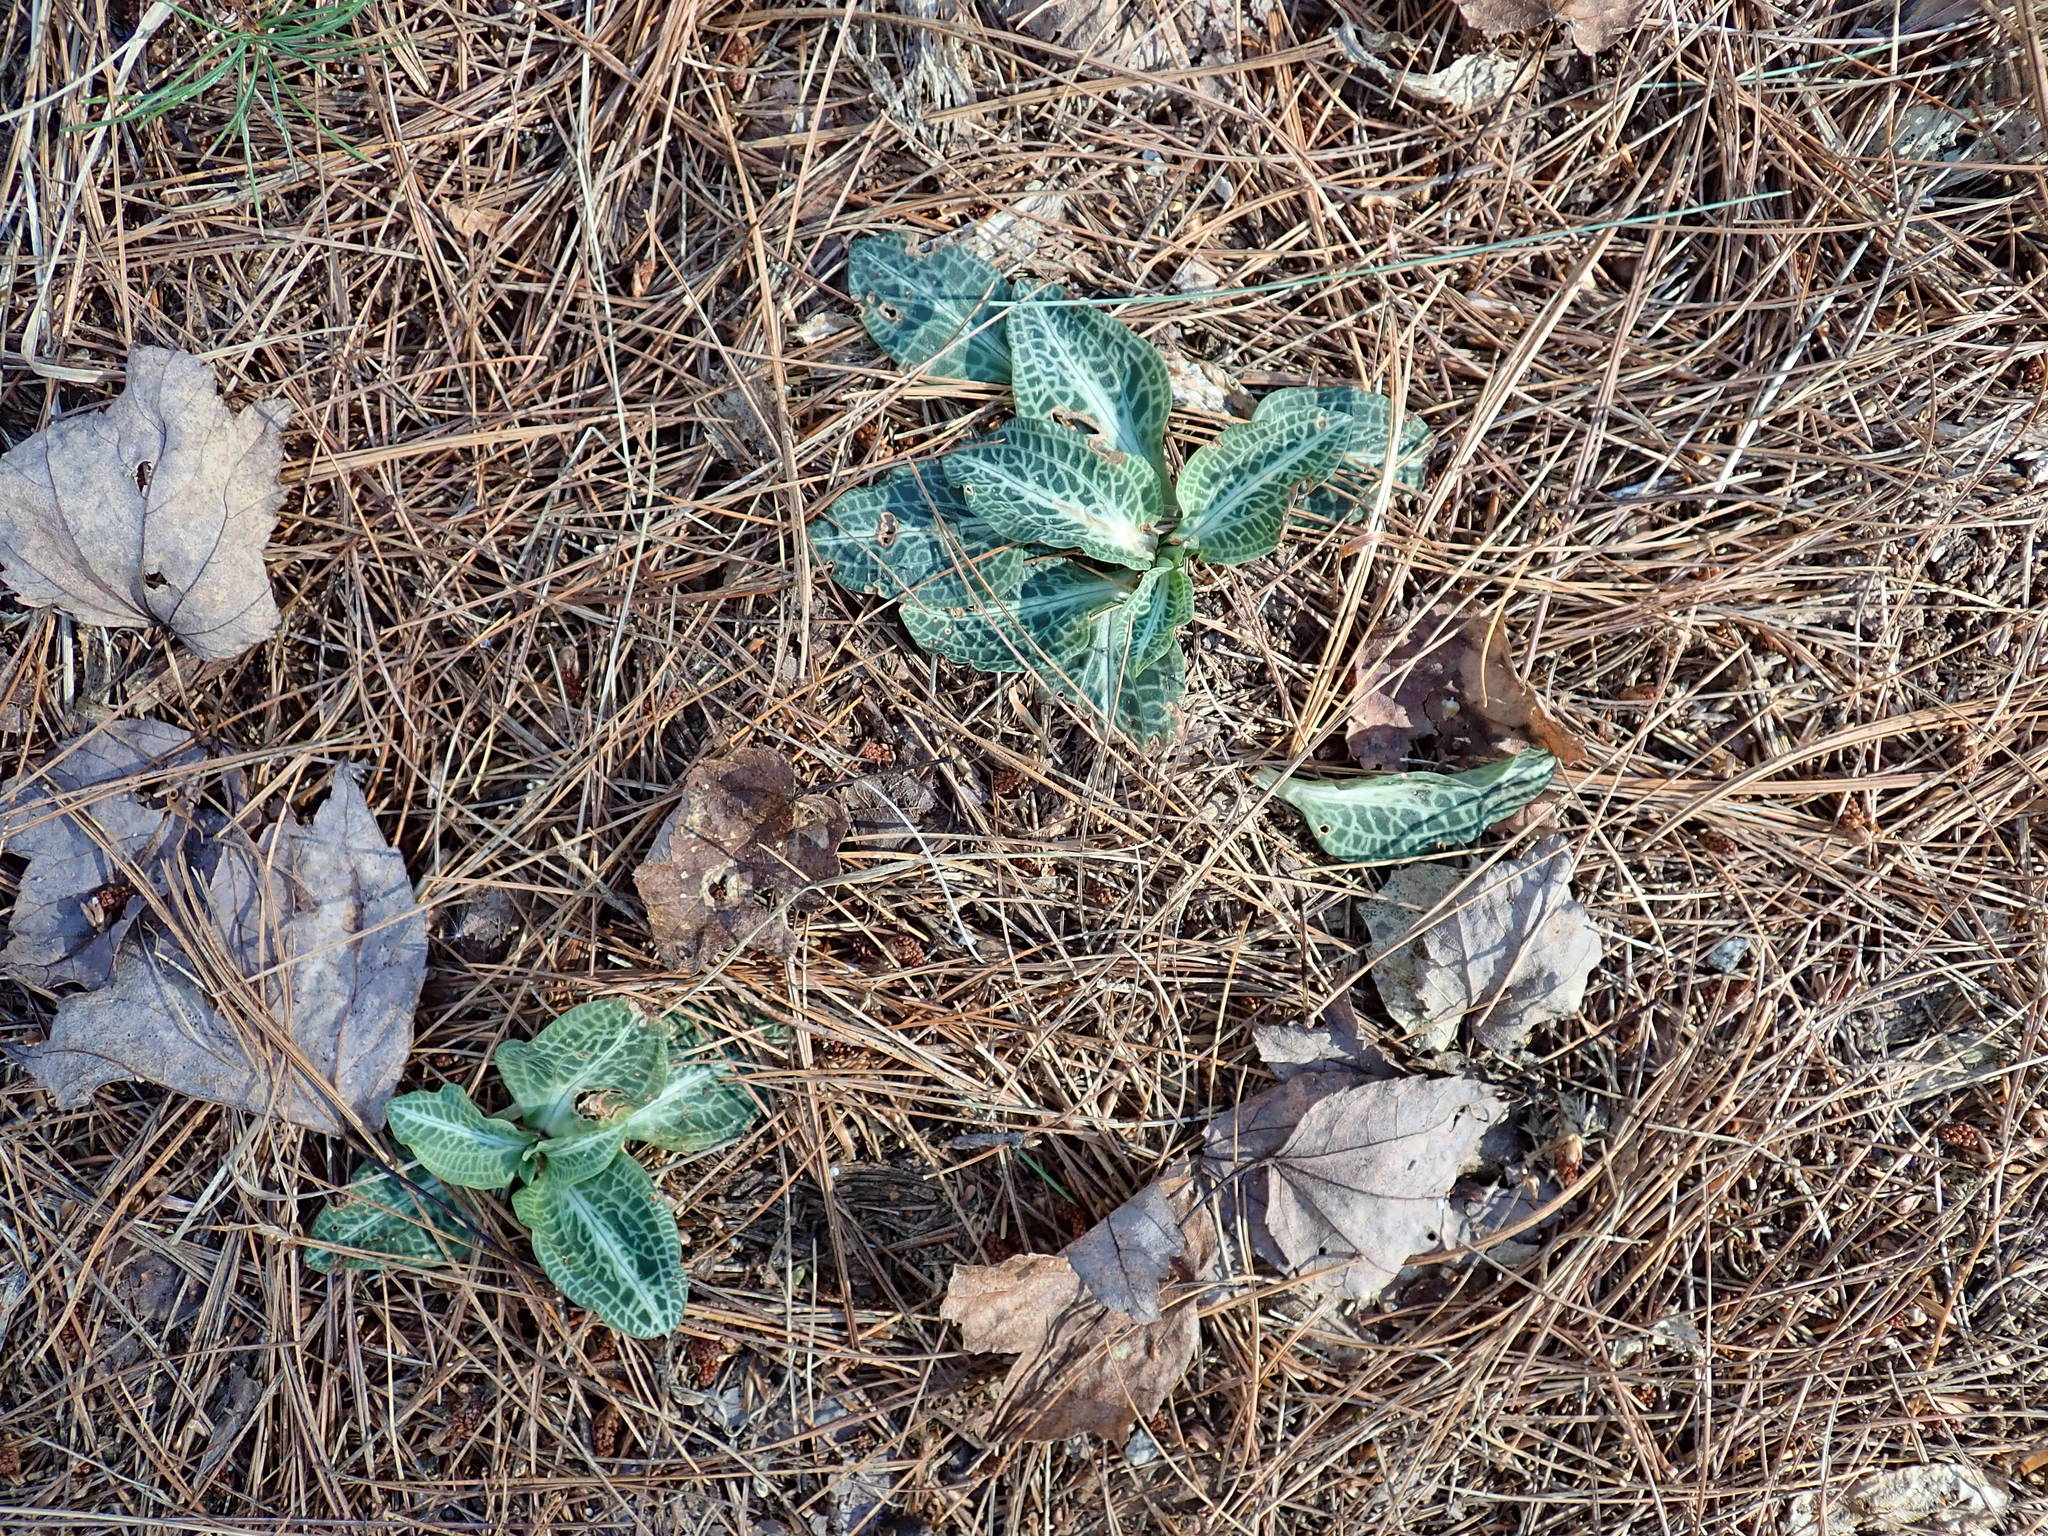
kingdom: Plantae
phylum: Tracheophyta
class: Liliopsida
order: Asparagales
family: Orchidaceae
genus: Goodyera
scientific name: Goodyera pubescens
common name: Downy rattlesnake-plantain
